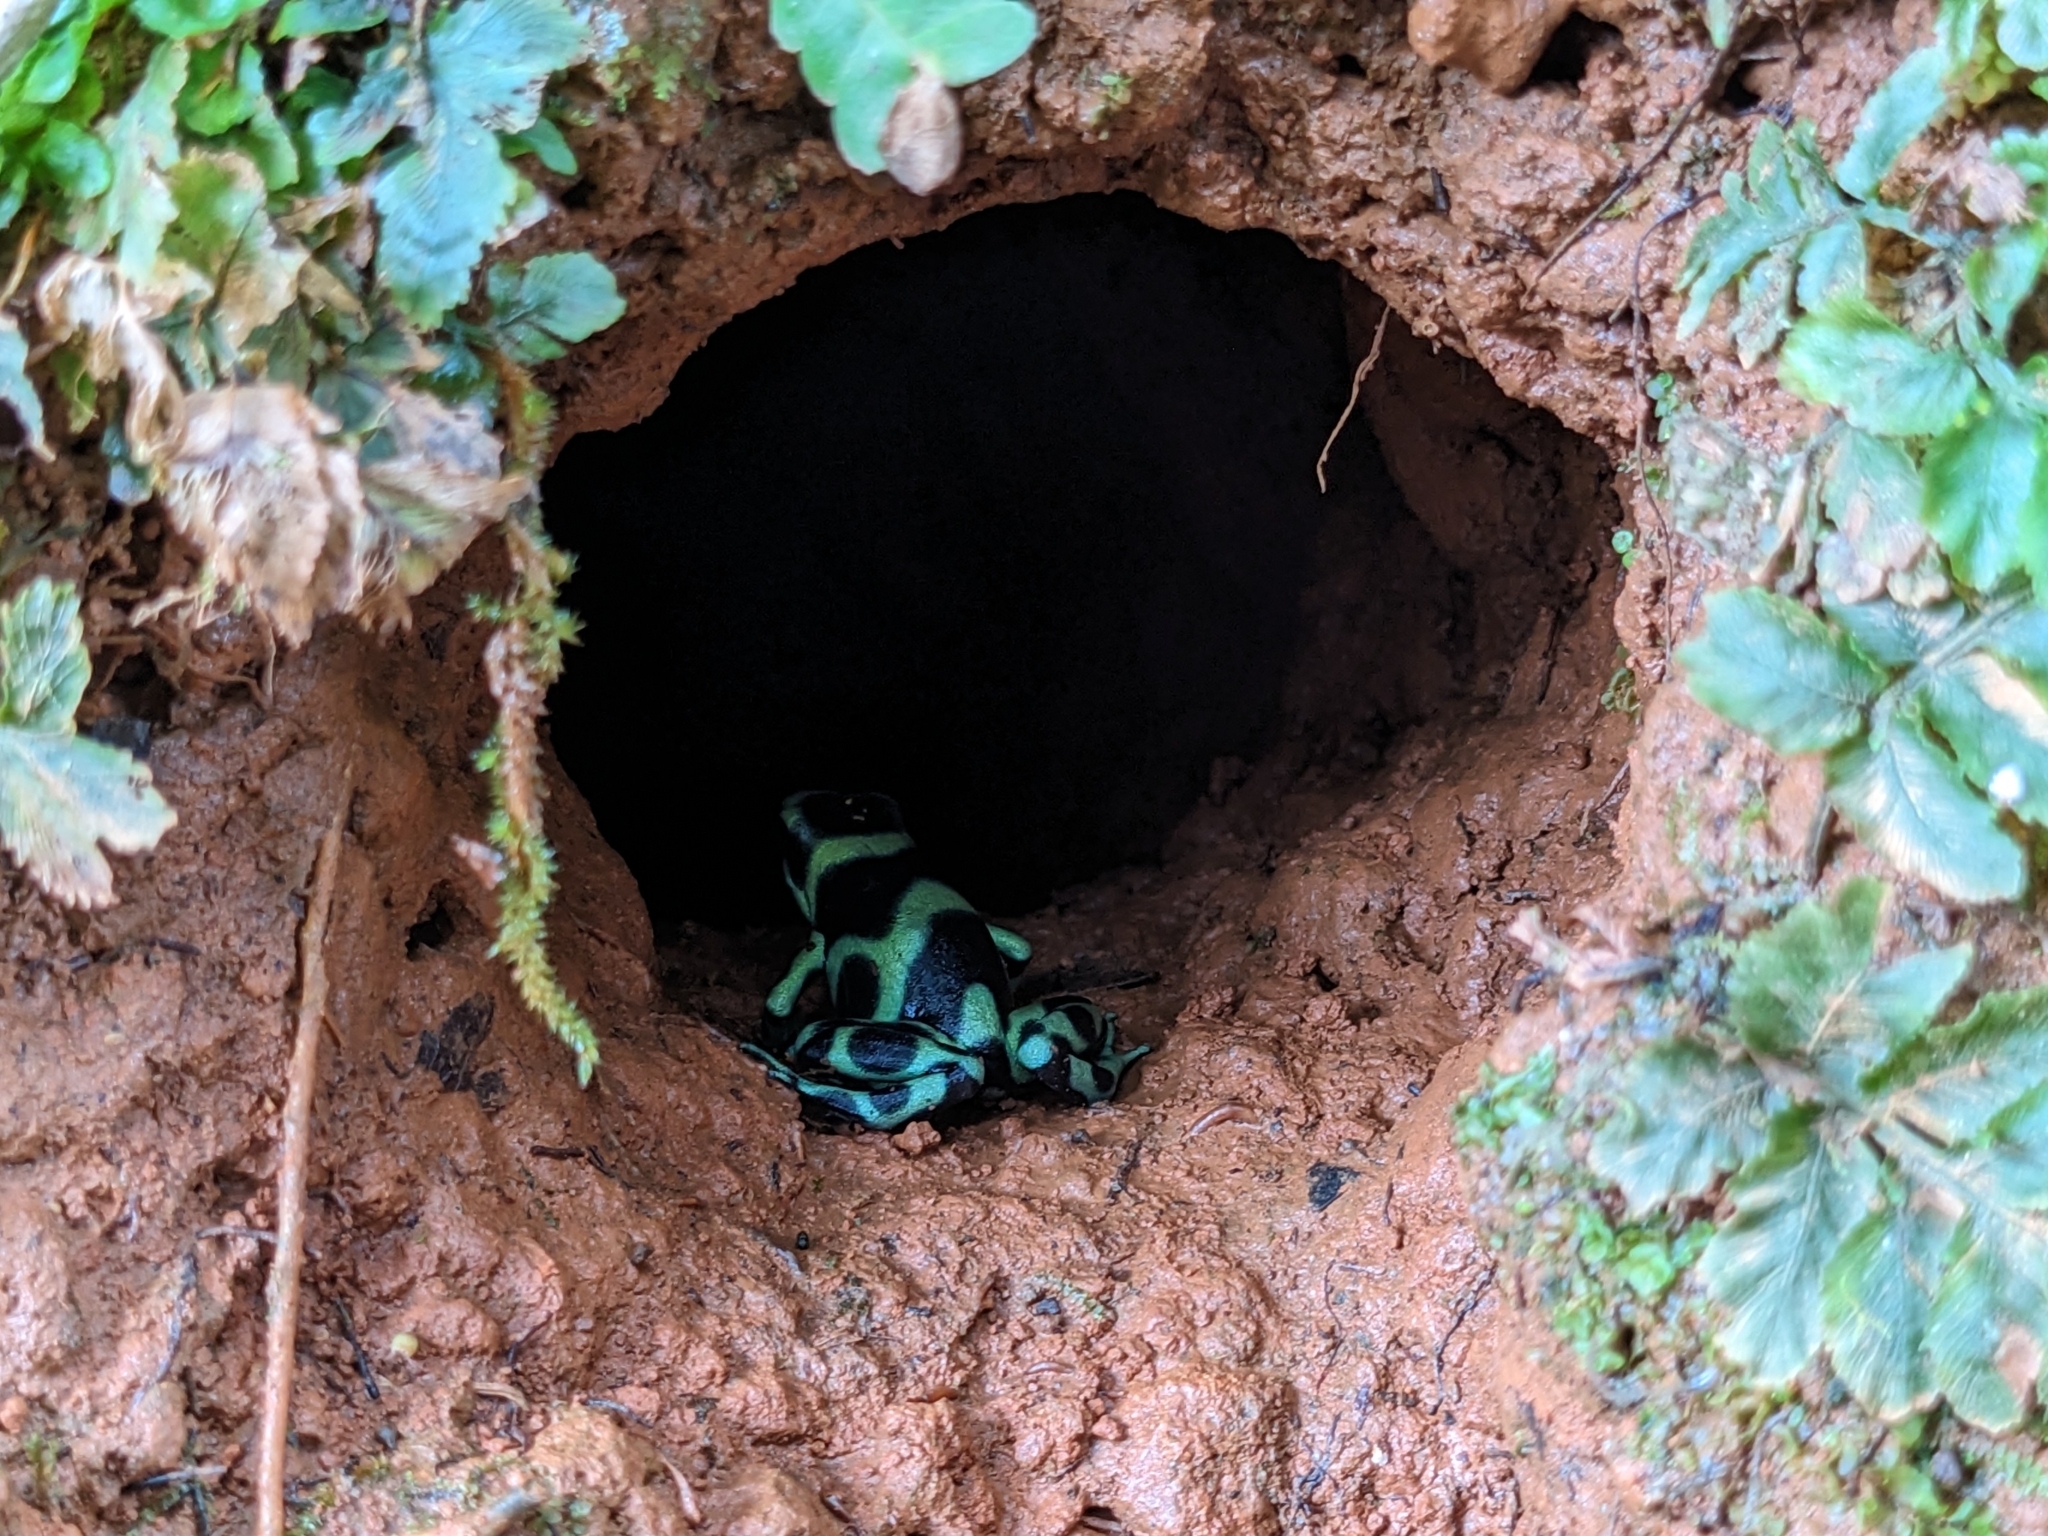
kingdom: Animalia
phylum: Chordata
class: Amphibia
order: Anura
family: Dendrobatidae
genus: Dendrobates
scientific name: Dendrobates auratus
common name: Green and black poison dart frog
